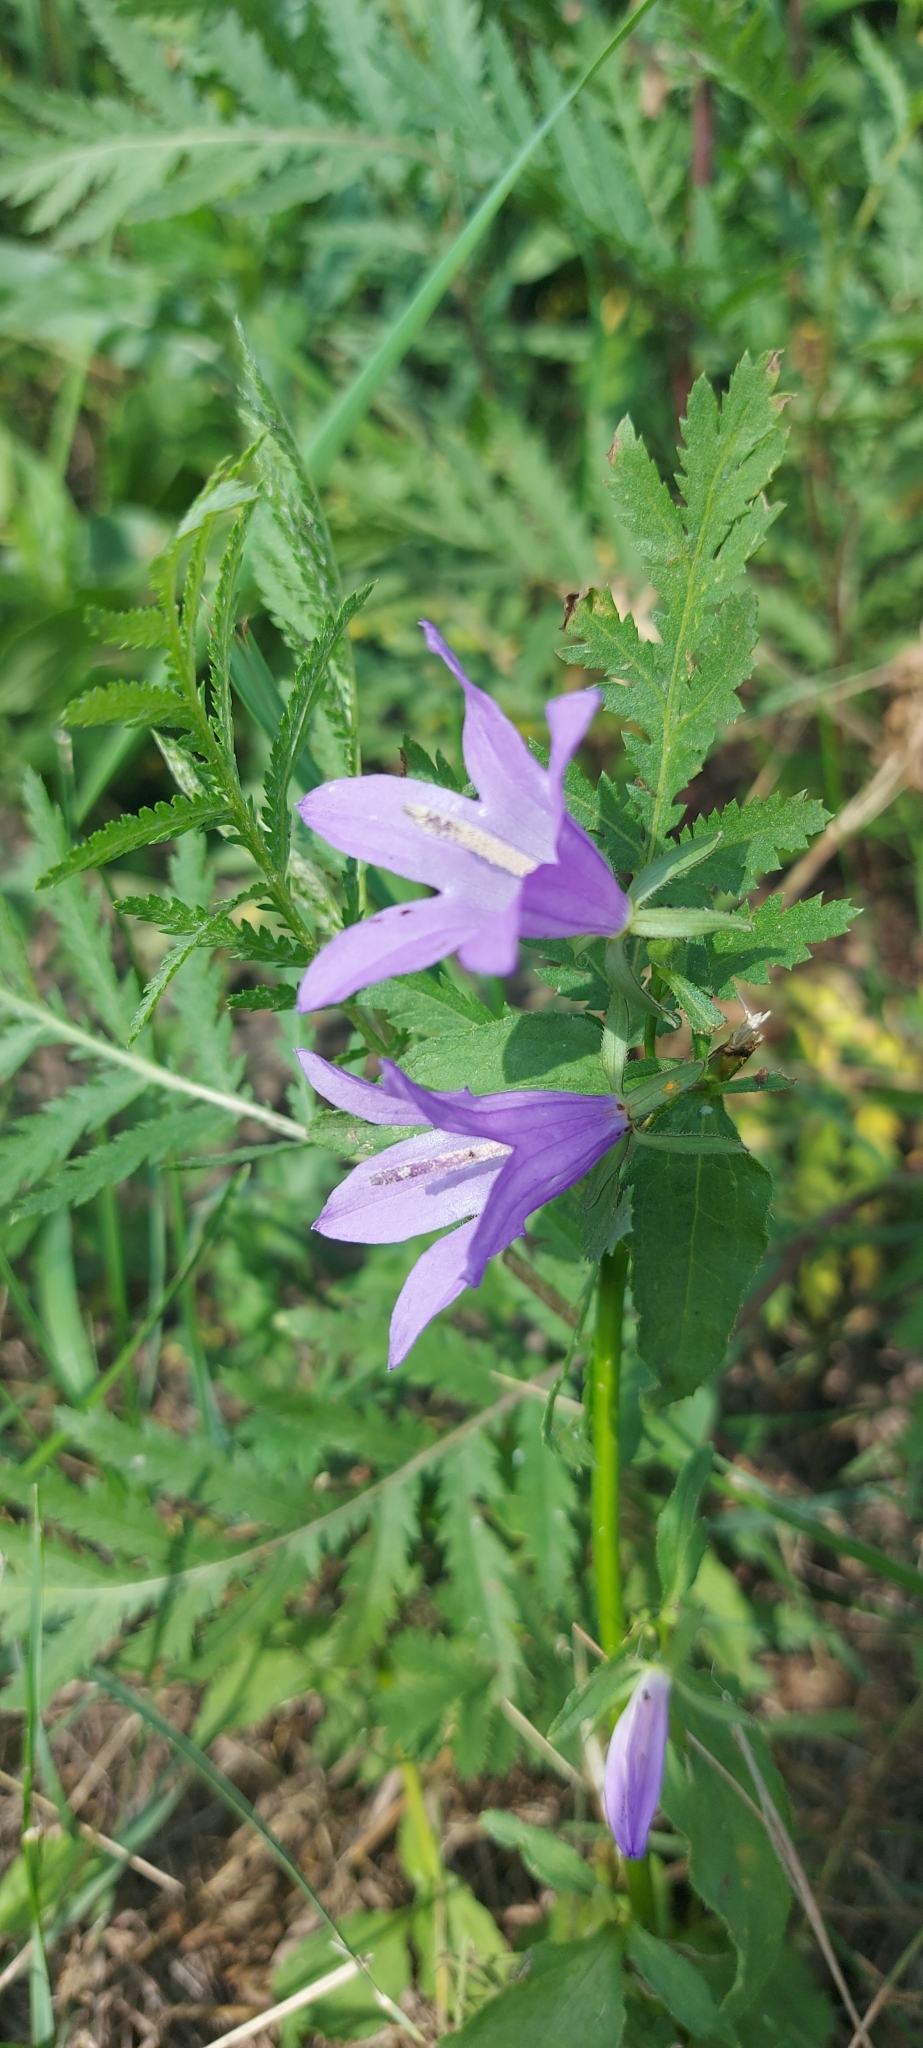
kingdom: Plantae
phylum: Tracheophyta
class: Magnoliopsida
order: Asterales
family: Campanulaceae
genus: Campanula
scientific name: Campanula rapunculoides
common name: Creeping bellflower
